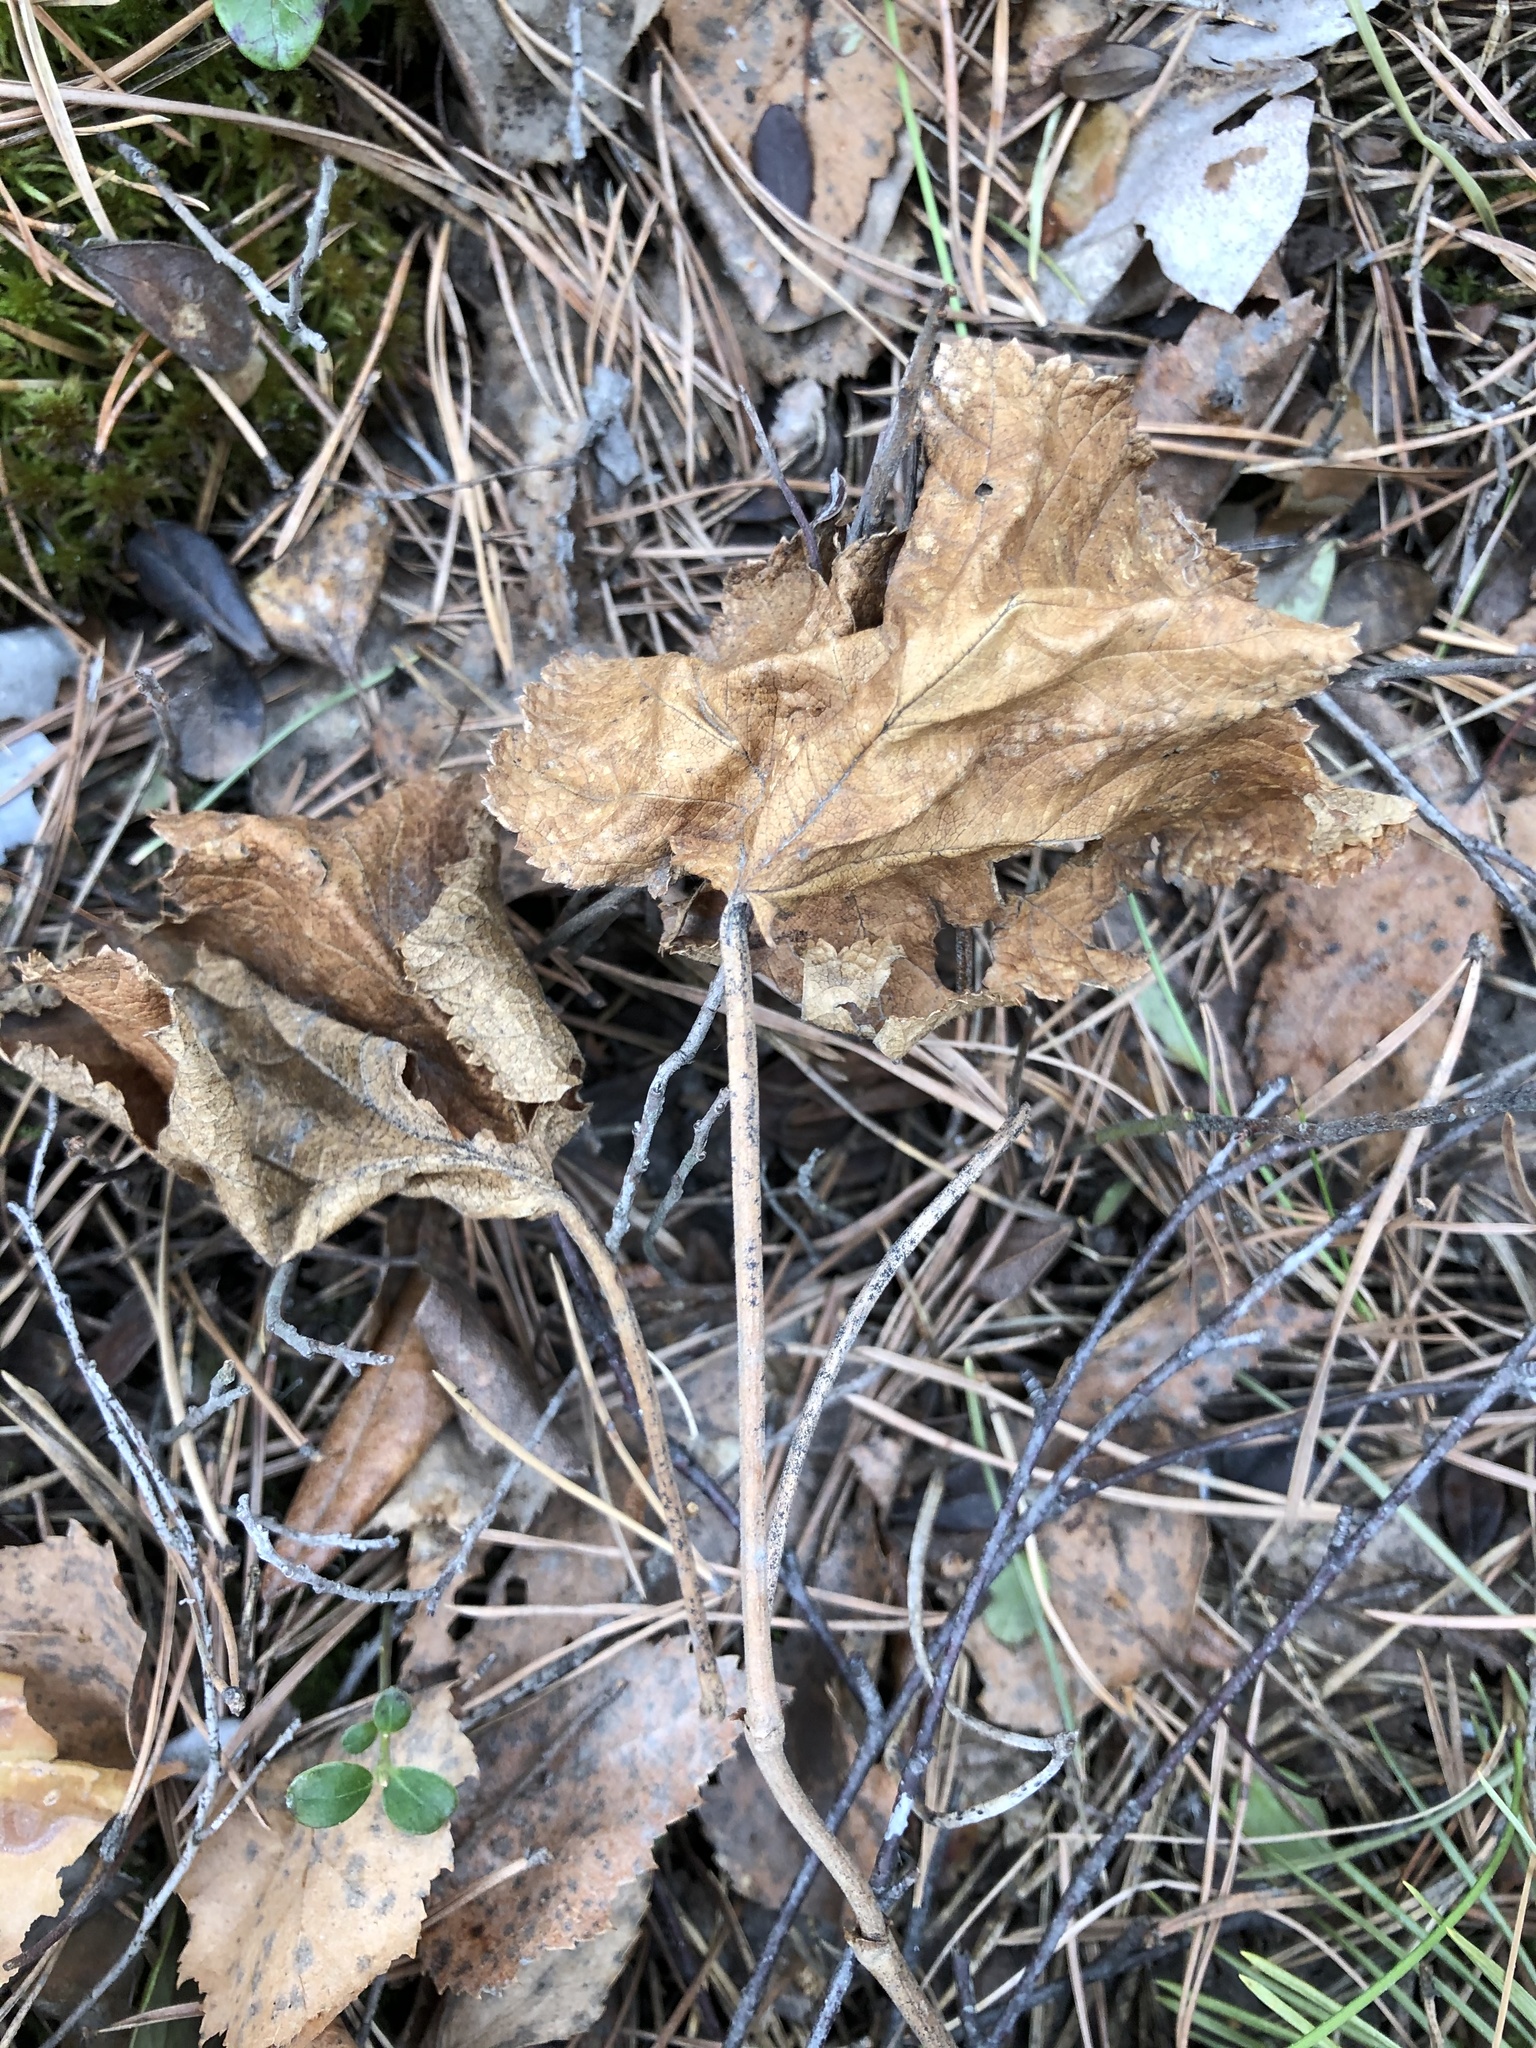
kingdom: Plantae
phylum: Tracheophyta
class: Magnoliopsida
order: Rosales
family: Rosaceae
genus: Rubus
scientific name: Rubus chamaemorus
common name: Cloudberry
